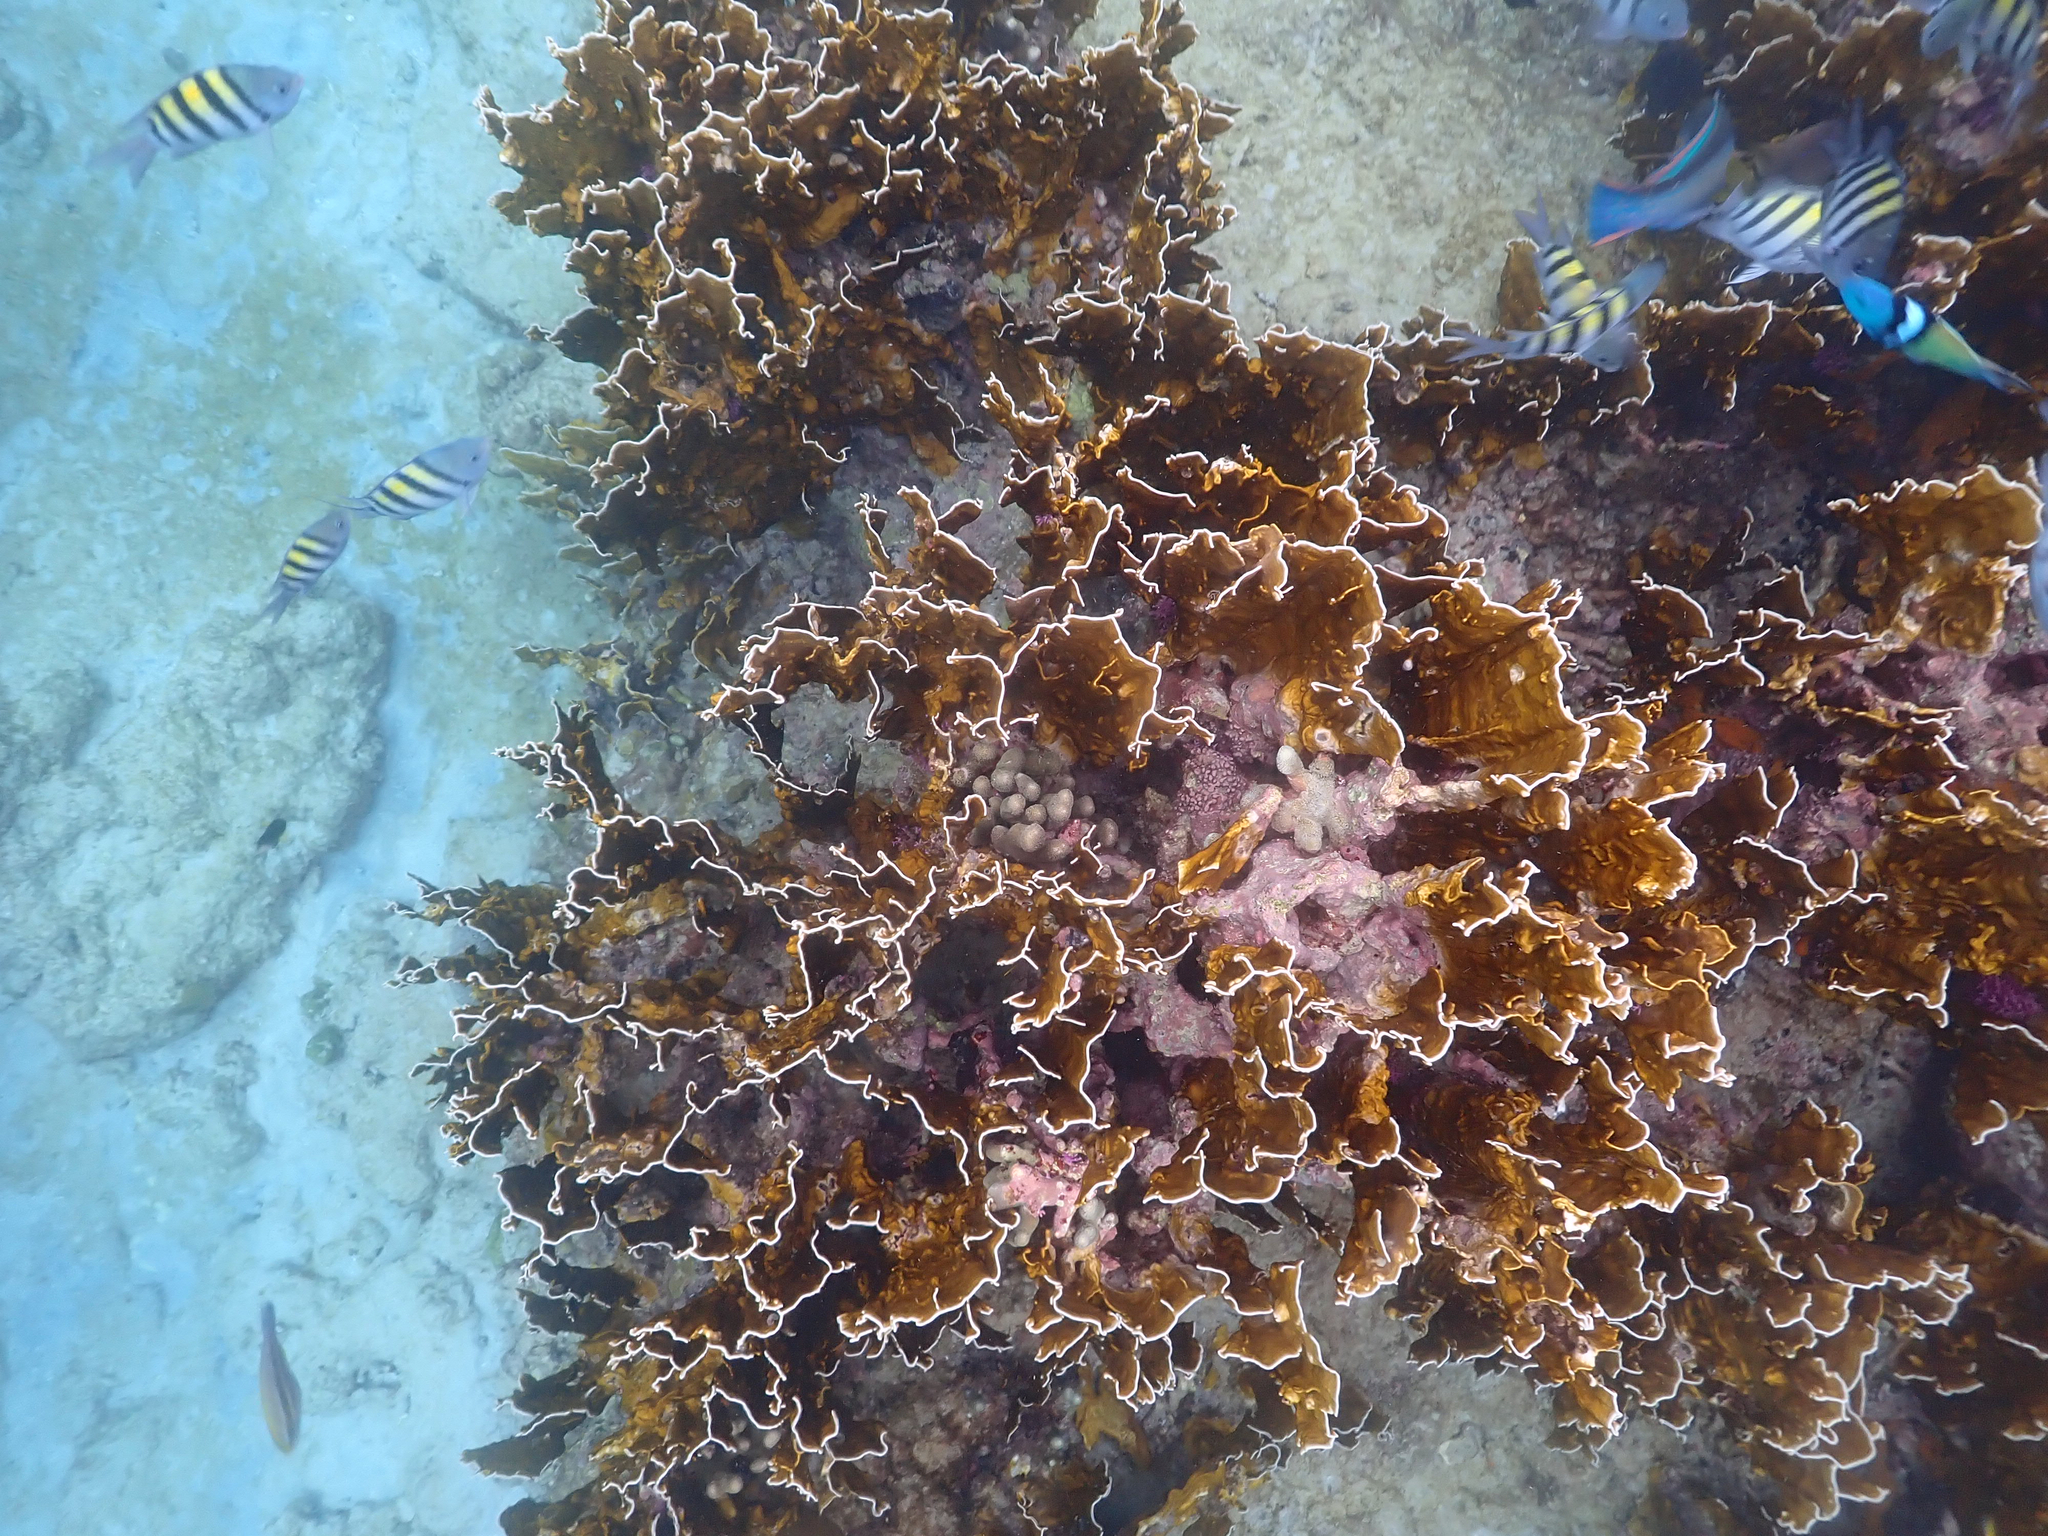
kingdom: Animalia
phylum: Cnidaria
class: Hydrozoa
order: Anthoathecata
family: Milleporidae
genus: Millepora
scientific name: Millepora complanata
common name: Bladed fire coral
